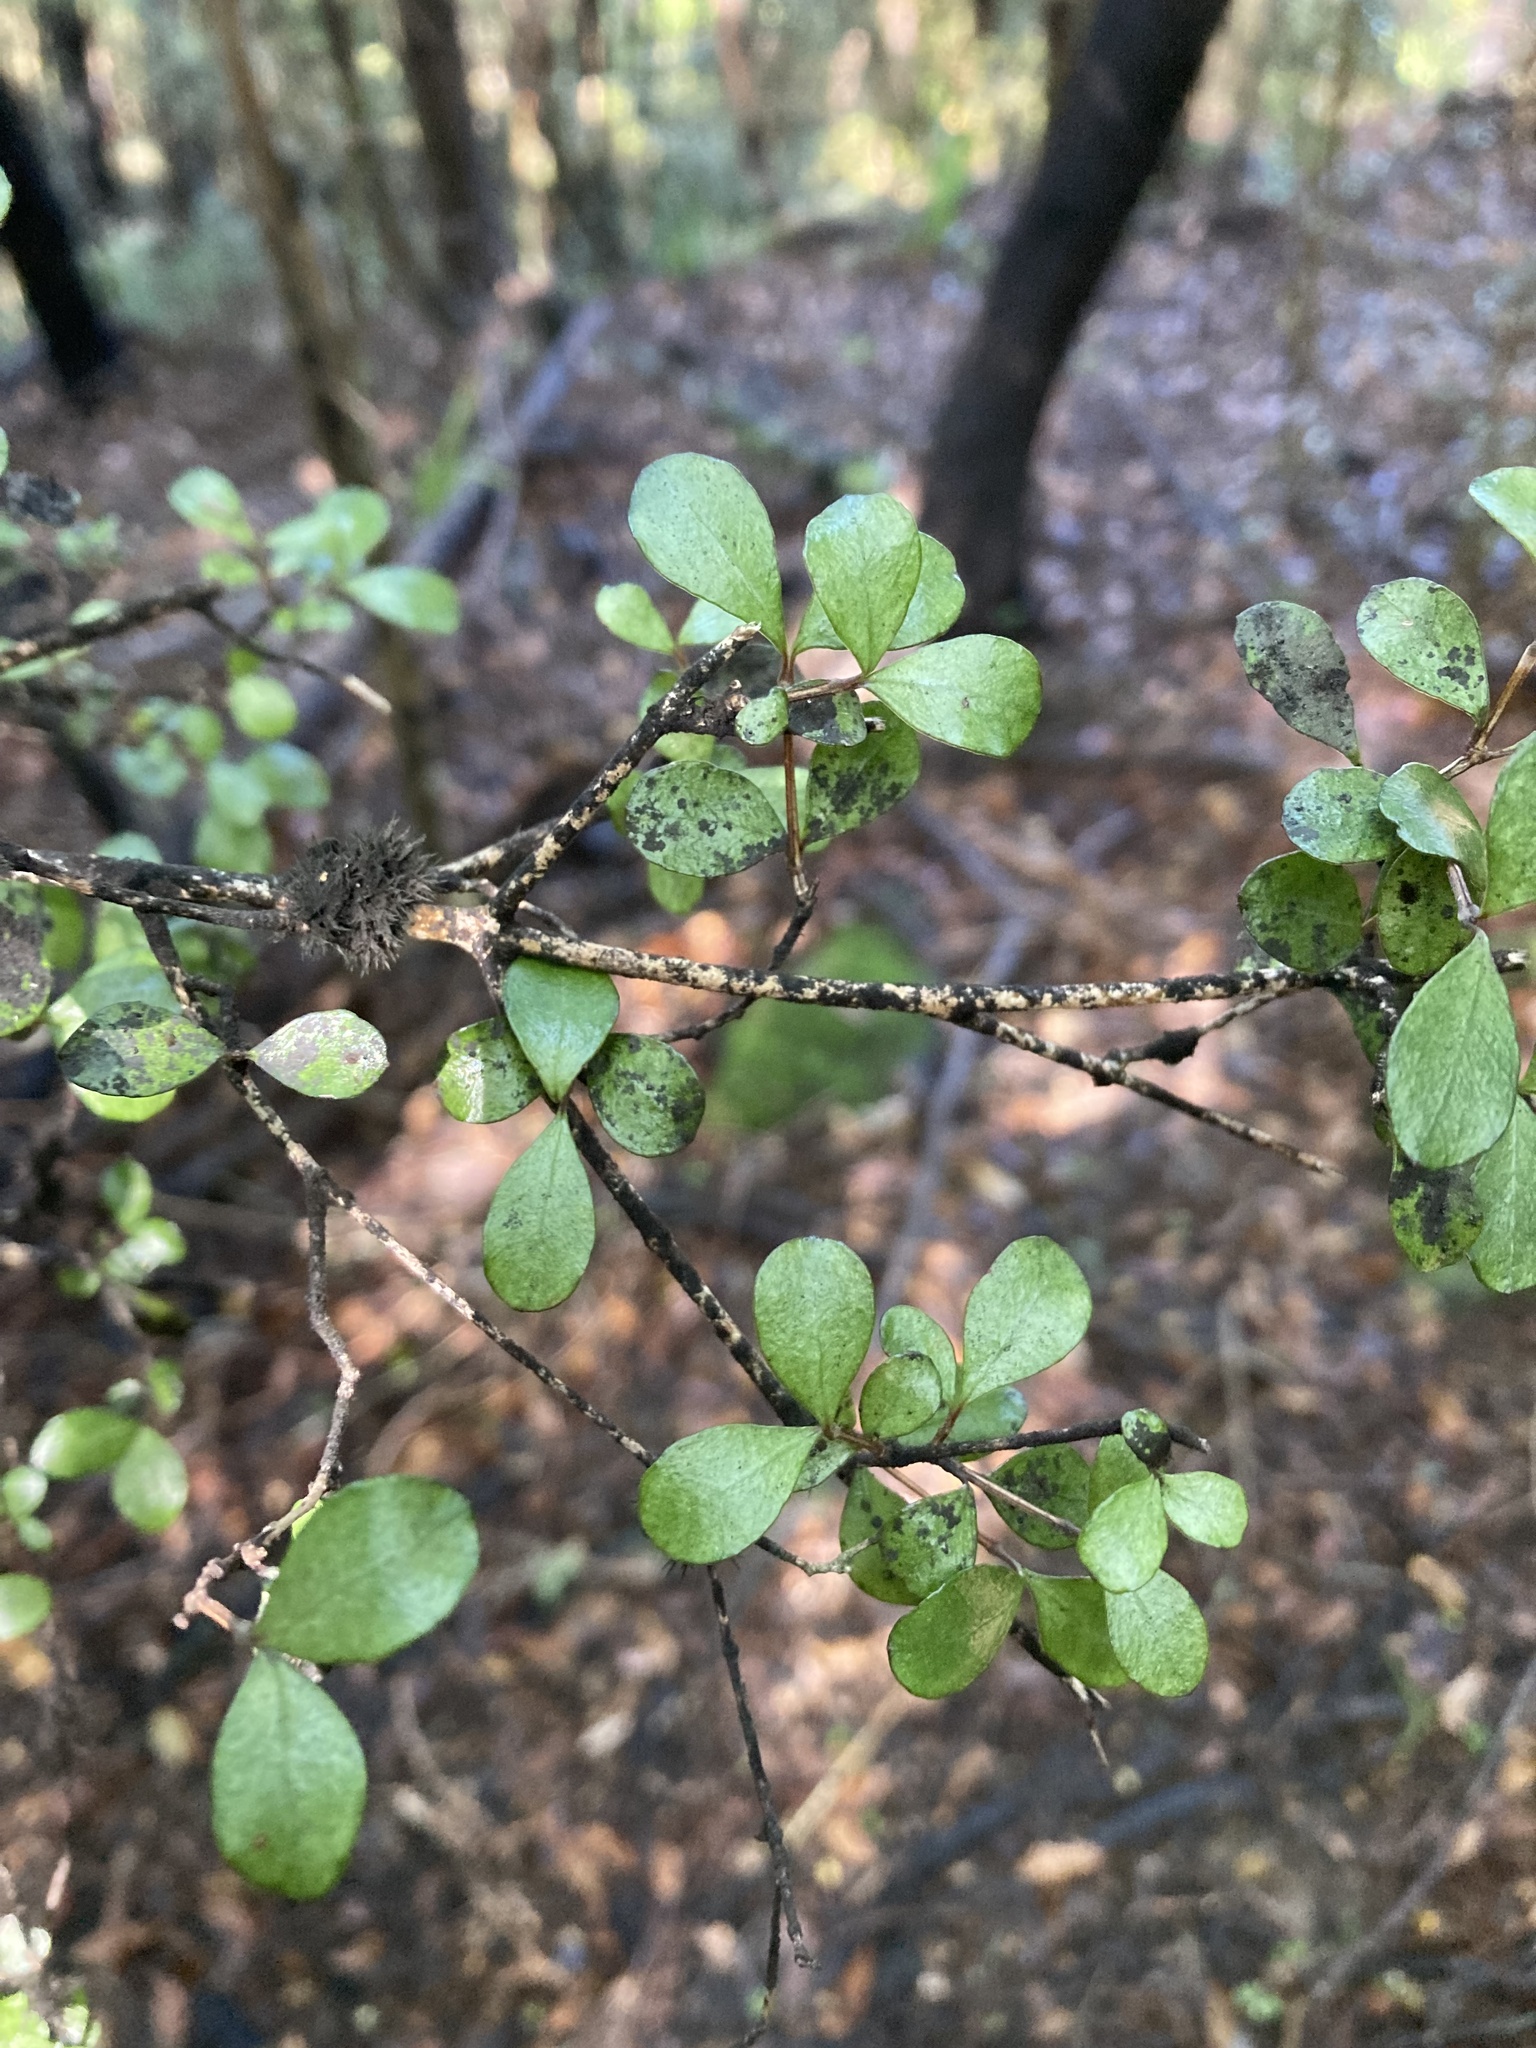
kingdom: Plantae
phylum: Tracheophyta
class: Magnoliopsida
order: Myrtales
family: Myrtaceae
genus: Neomyrtus
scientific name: Neomyrtus pedunculata
